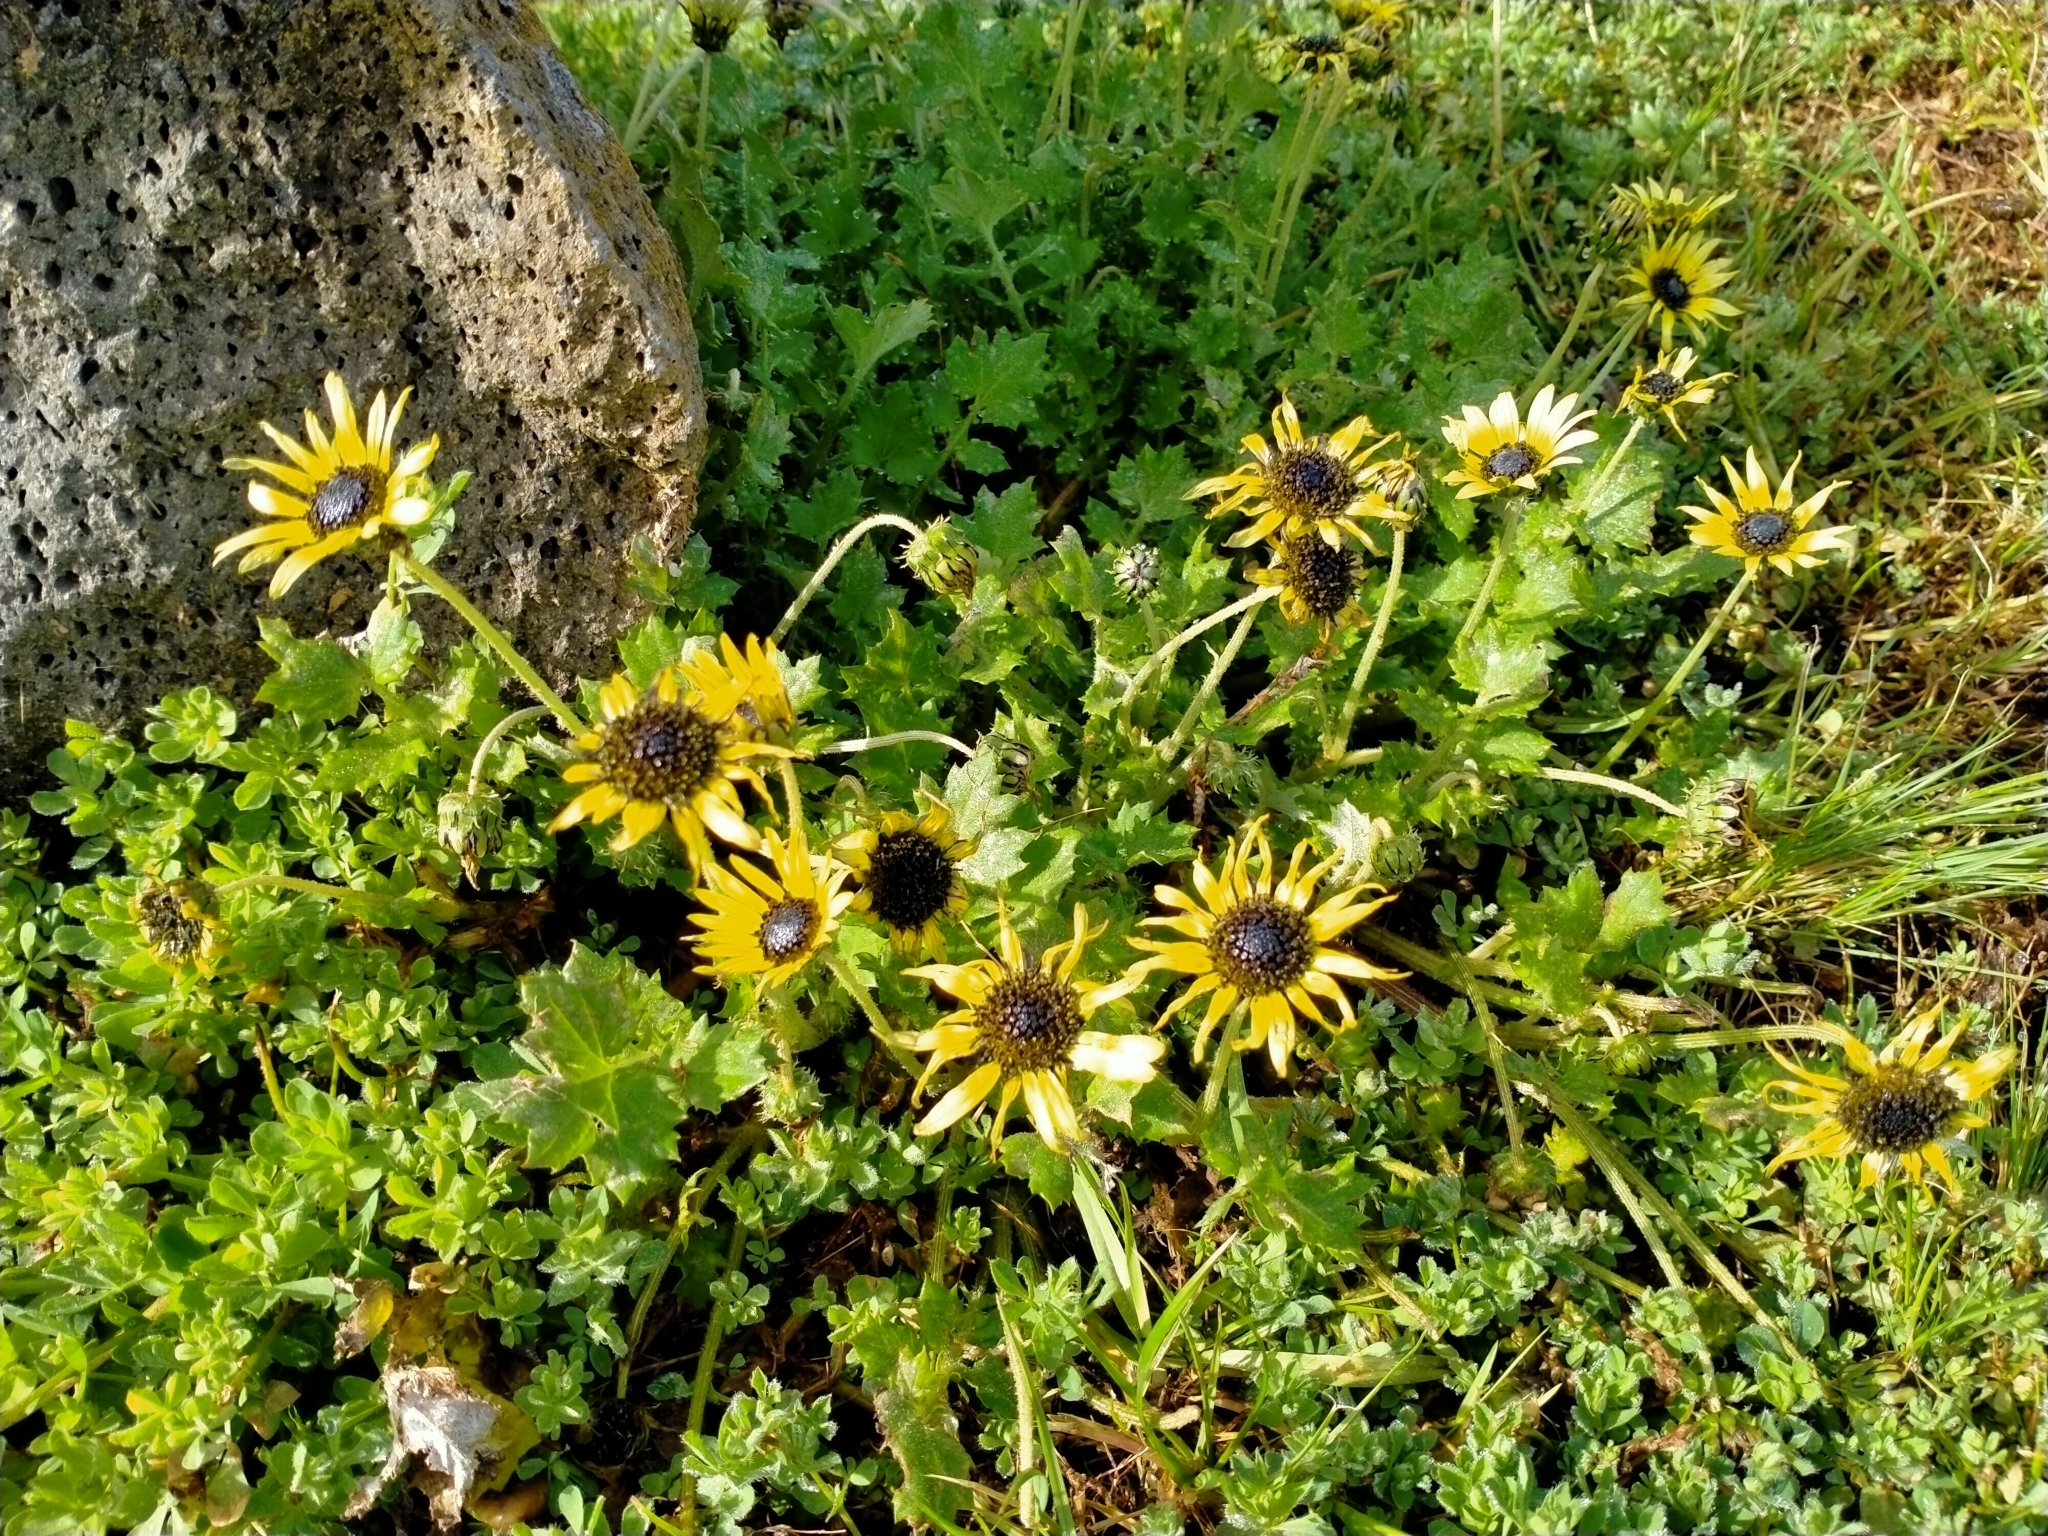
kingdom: Plantae
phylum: Tracheophyta
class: Magnoliopsida
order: Asterales
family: Asteraceae
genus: Arctotheca
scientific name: Arctotheca calendula
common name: Capeweed
